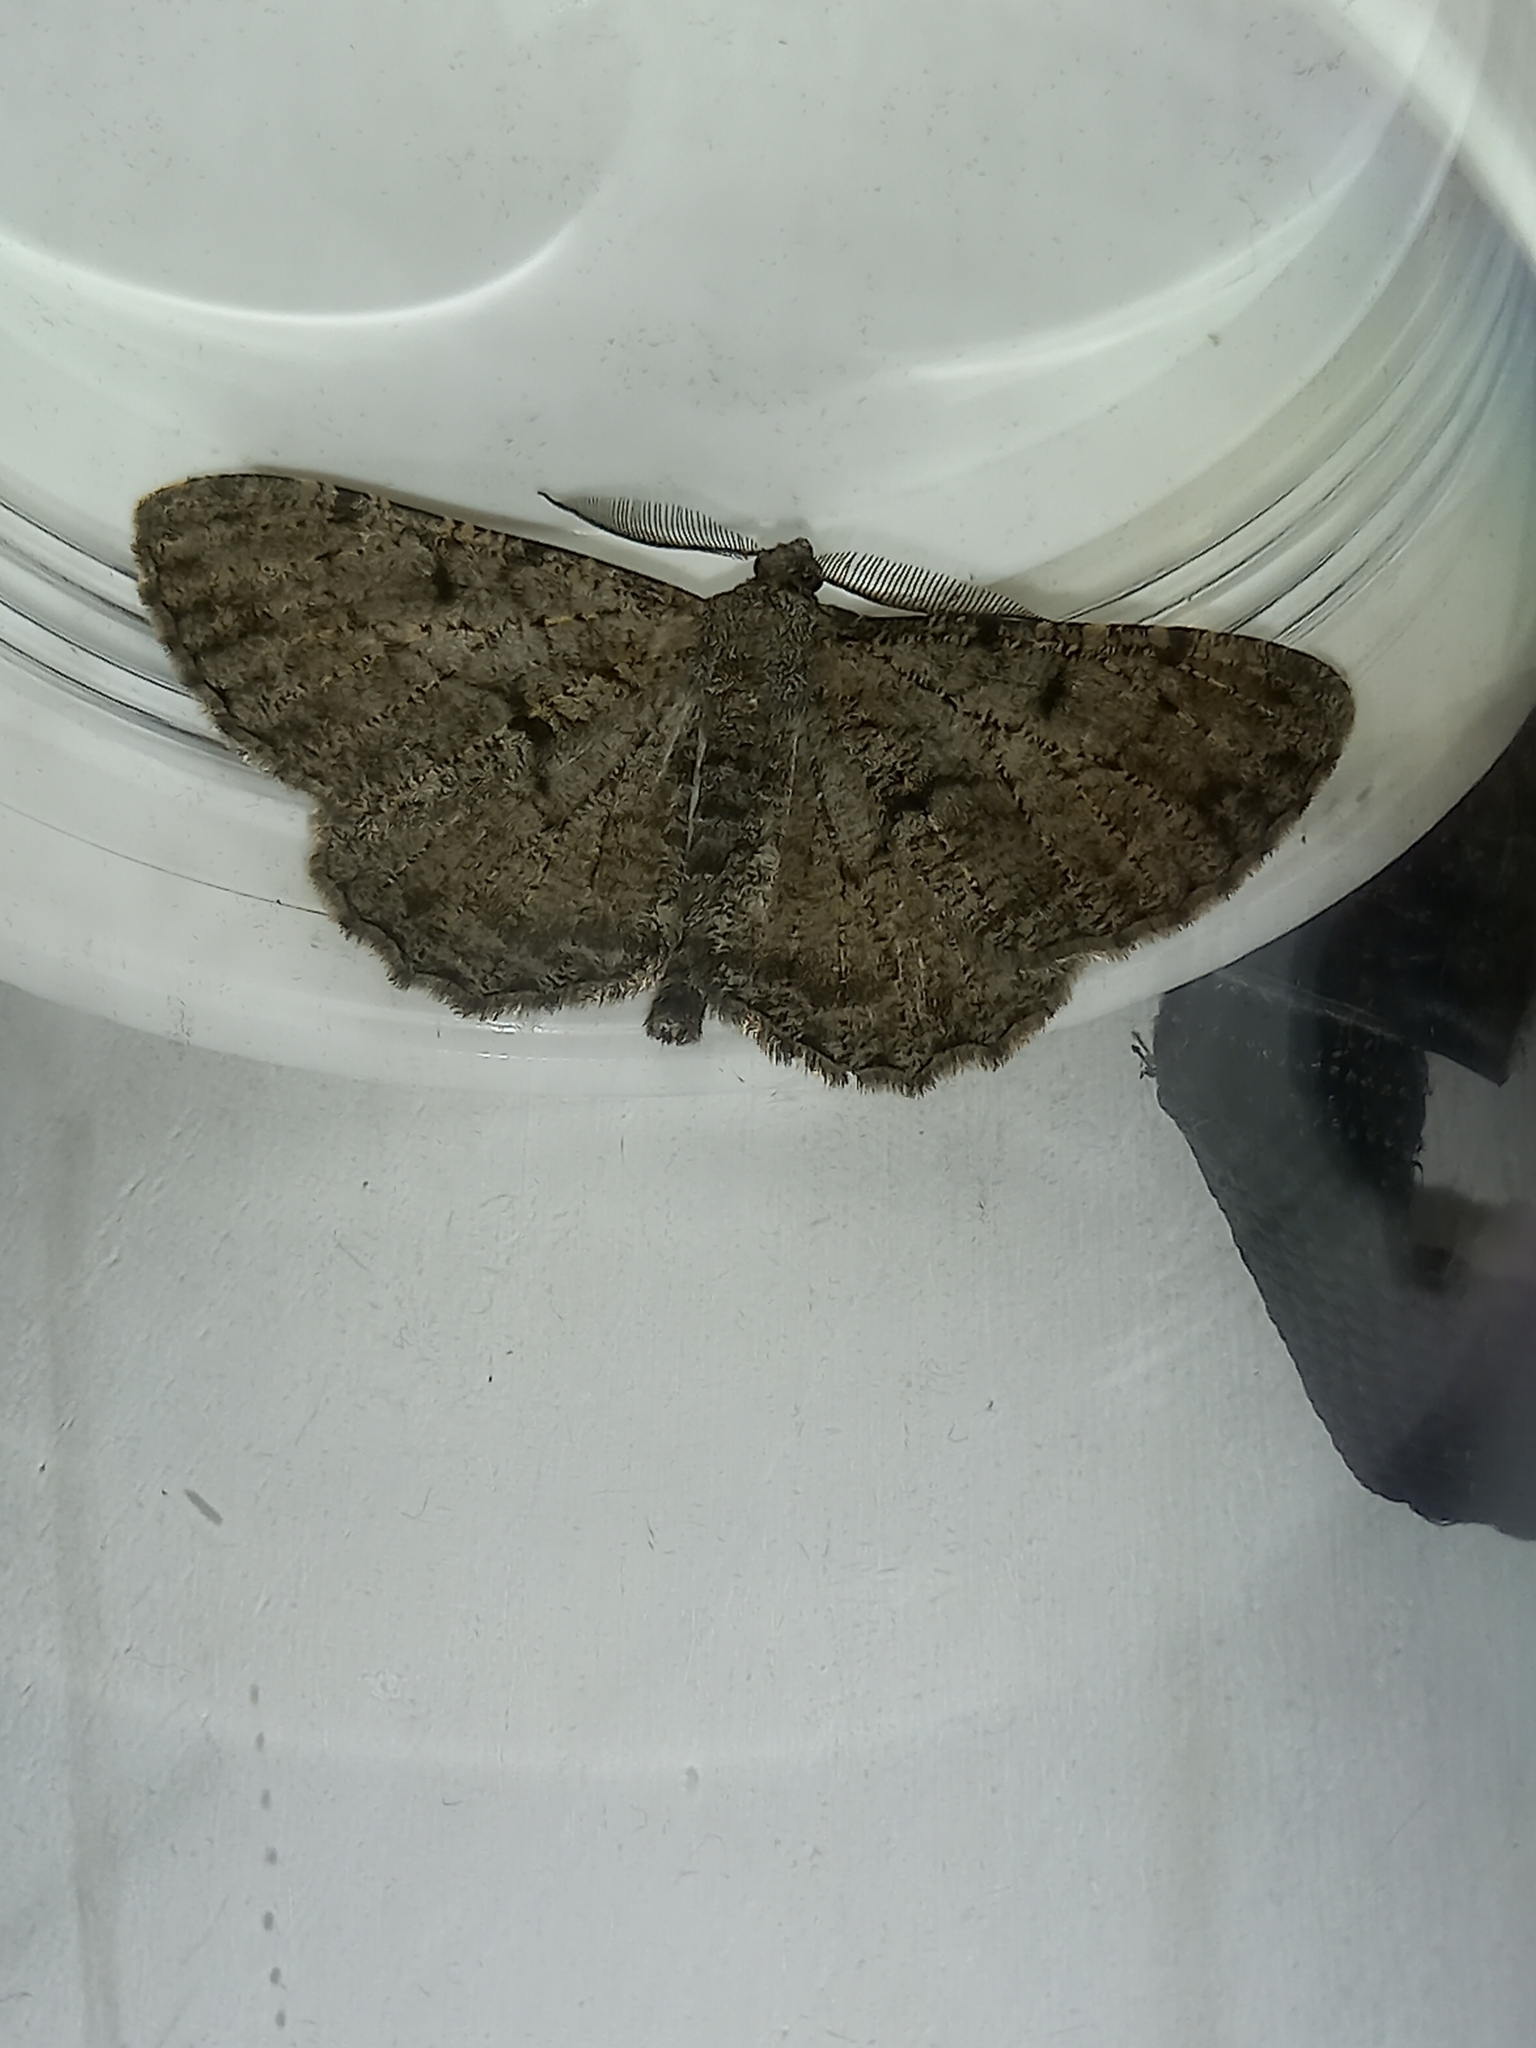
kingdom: Animalia
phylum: Arthropoda
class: Insecta
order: Lepidoptera
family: Geometridae
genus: Peribatodes
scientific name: Peribatodes rhomboidaria
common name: Willow beauty
